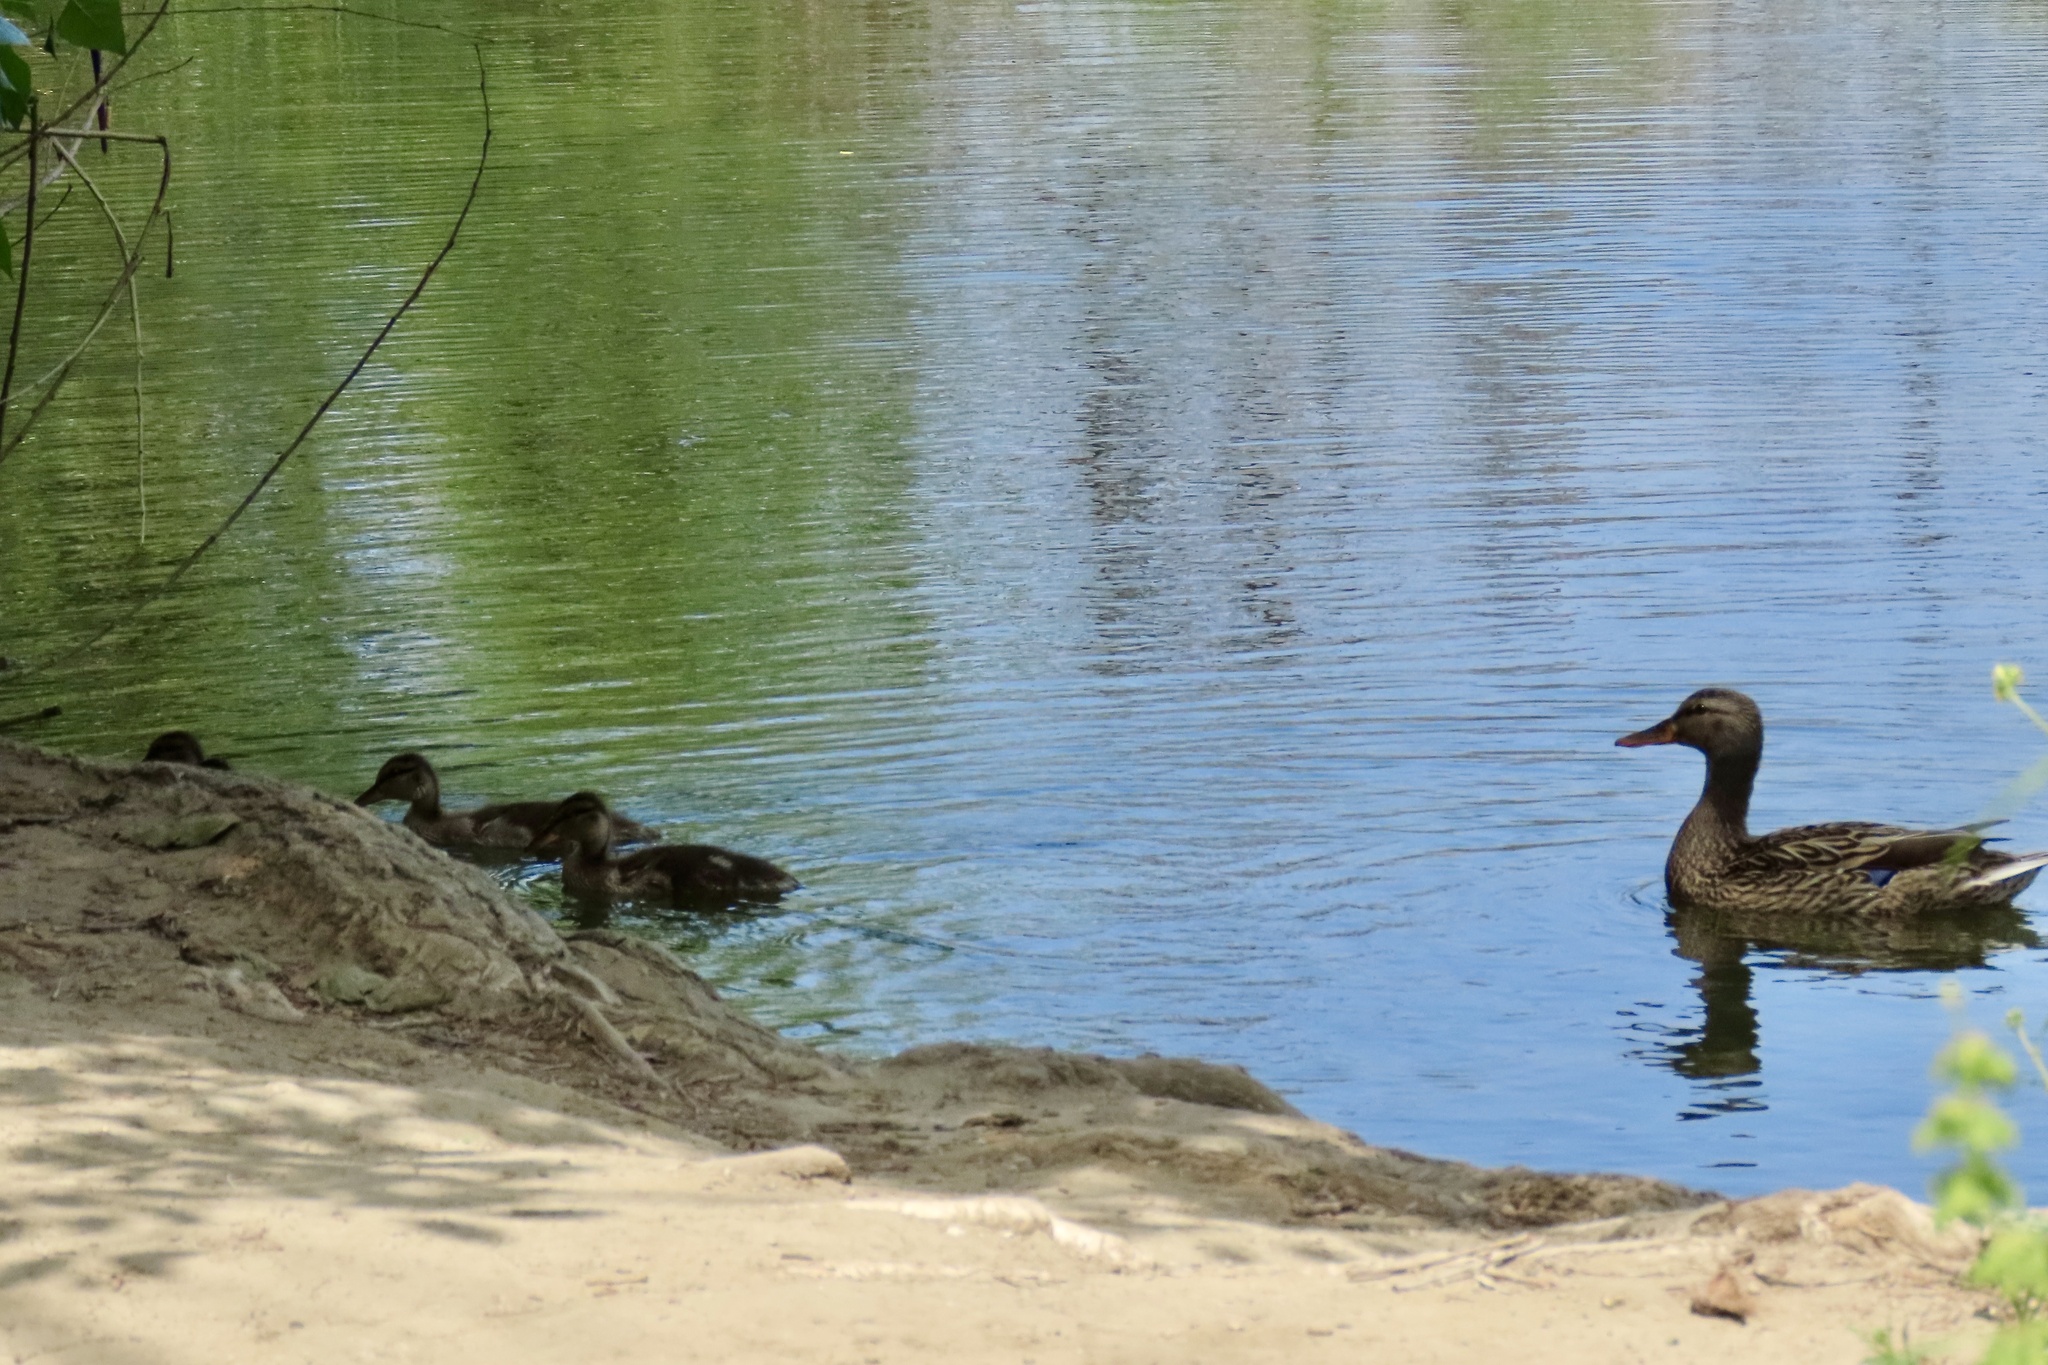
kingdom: Animalia
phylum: Chordata
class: Aves
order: Anseriformes
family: Anatidae
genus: Anas
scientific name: Anas platyrhynchos
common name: Mallard
